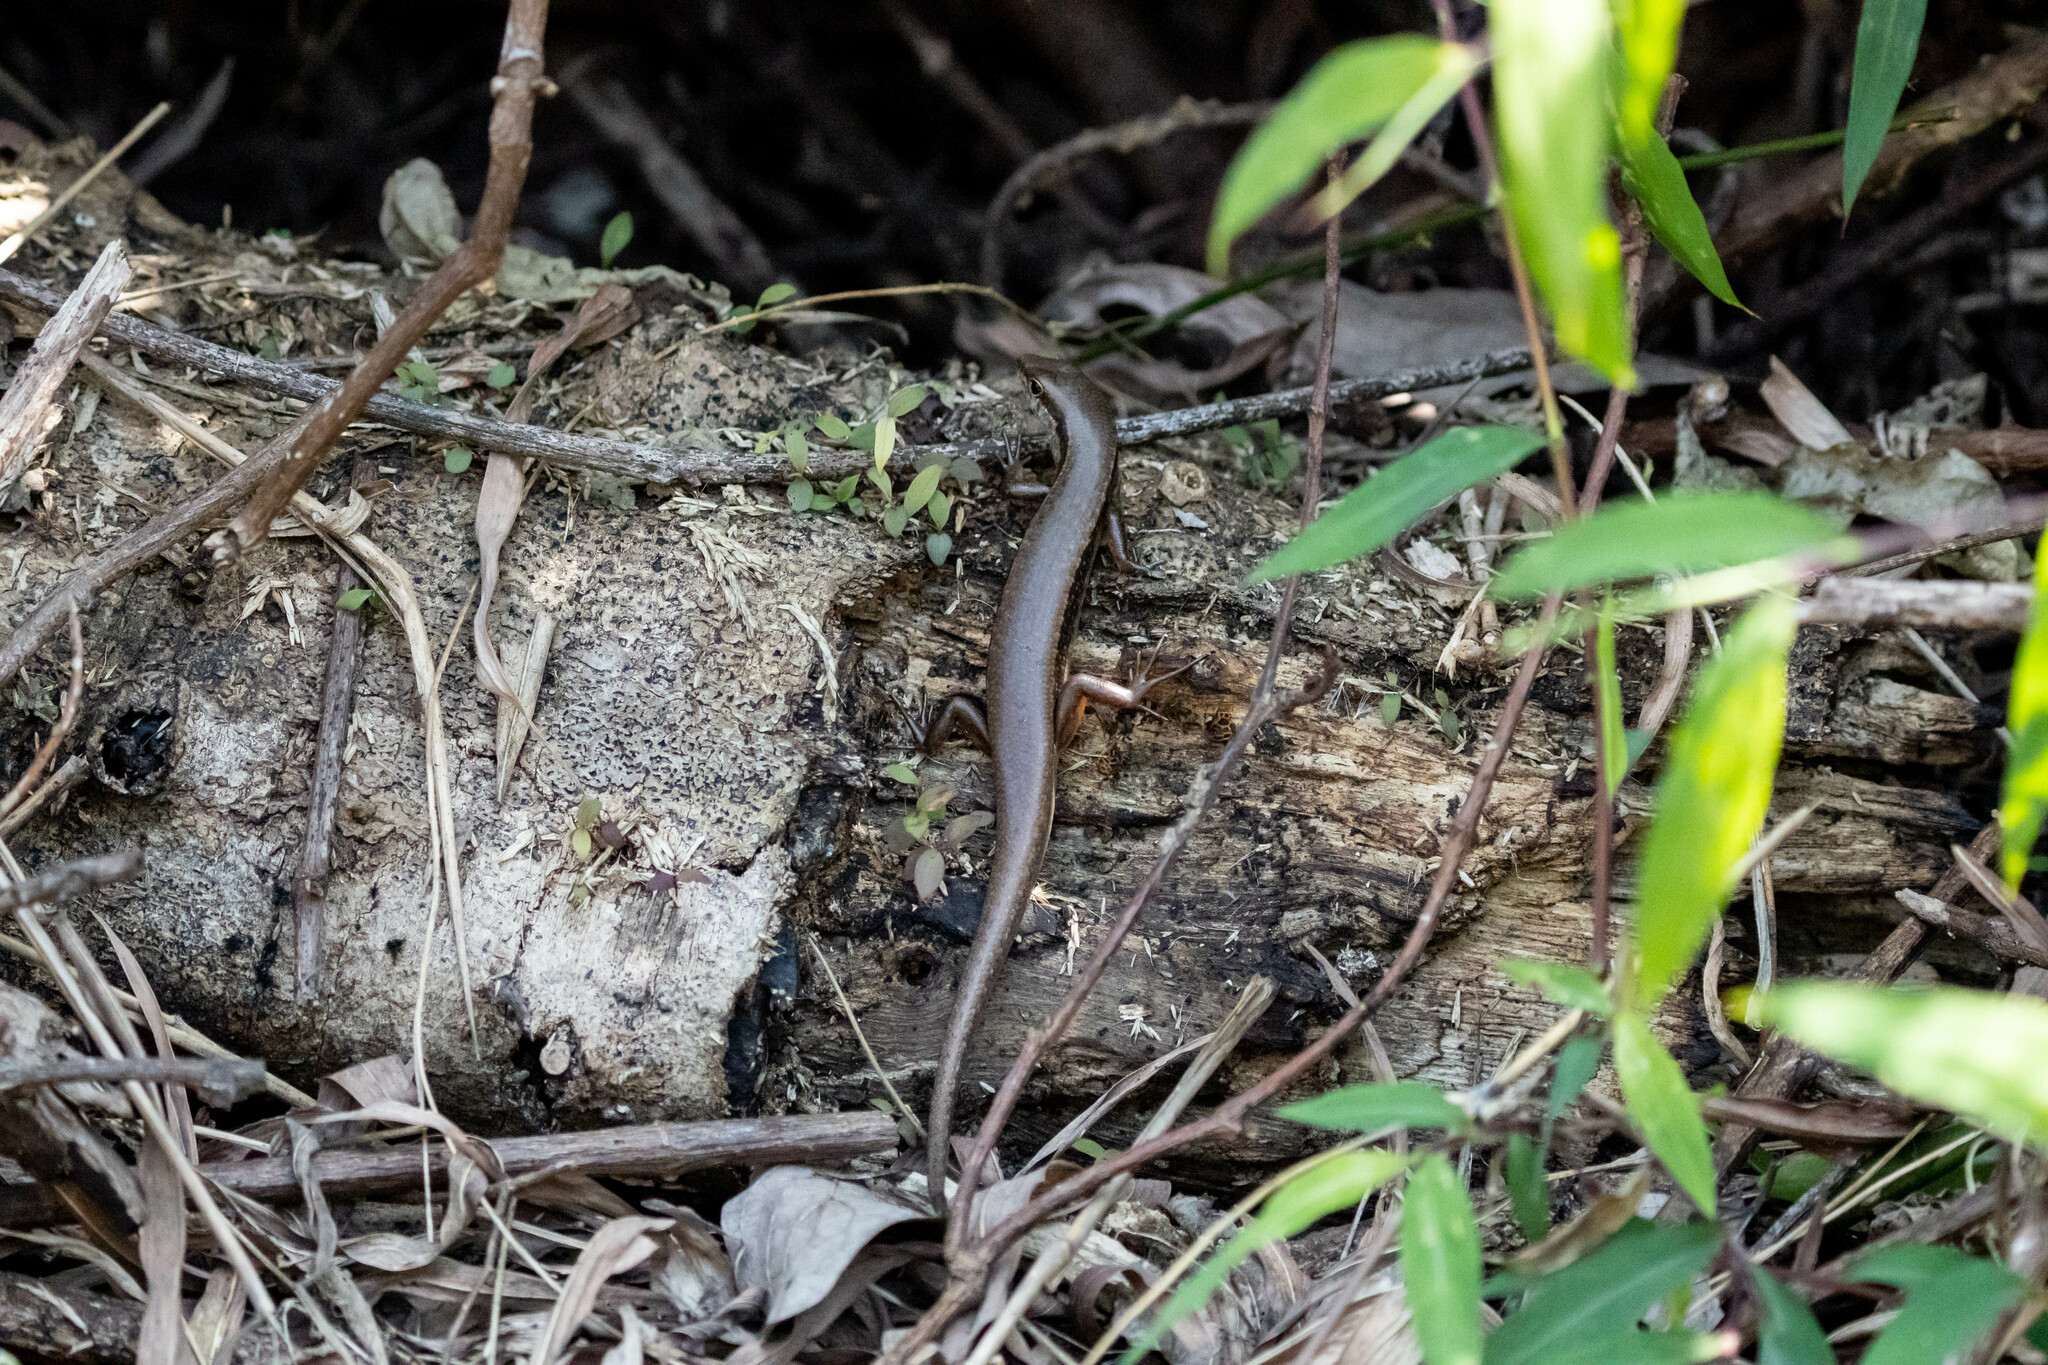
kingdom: Animalia
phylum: Chordata
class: Squamata
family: Scincidae
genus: Sphenomorphus
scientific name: Sphenomorphus indicus
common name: Himalayan forest skink
